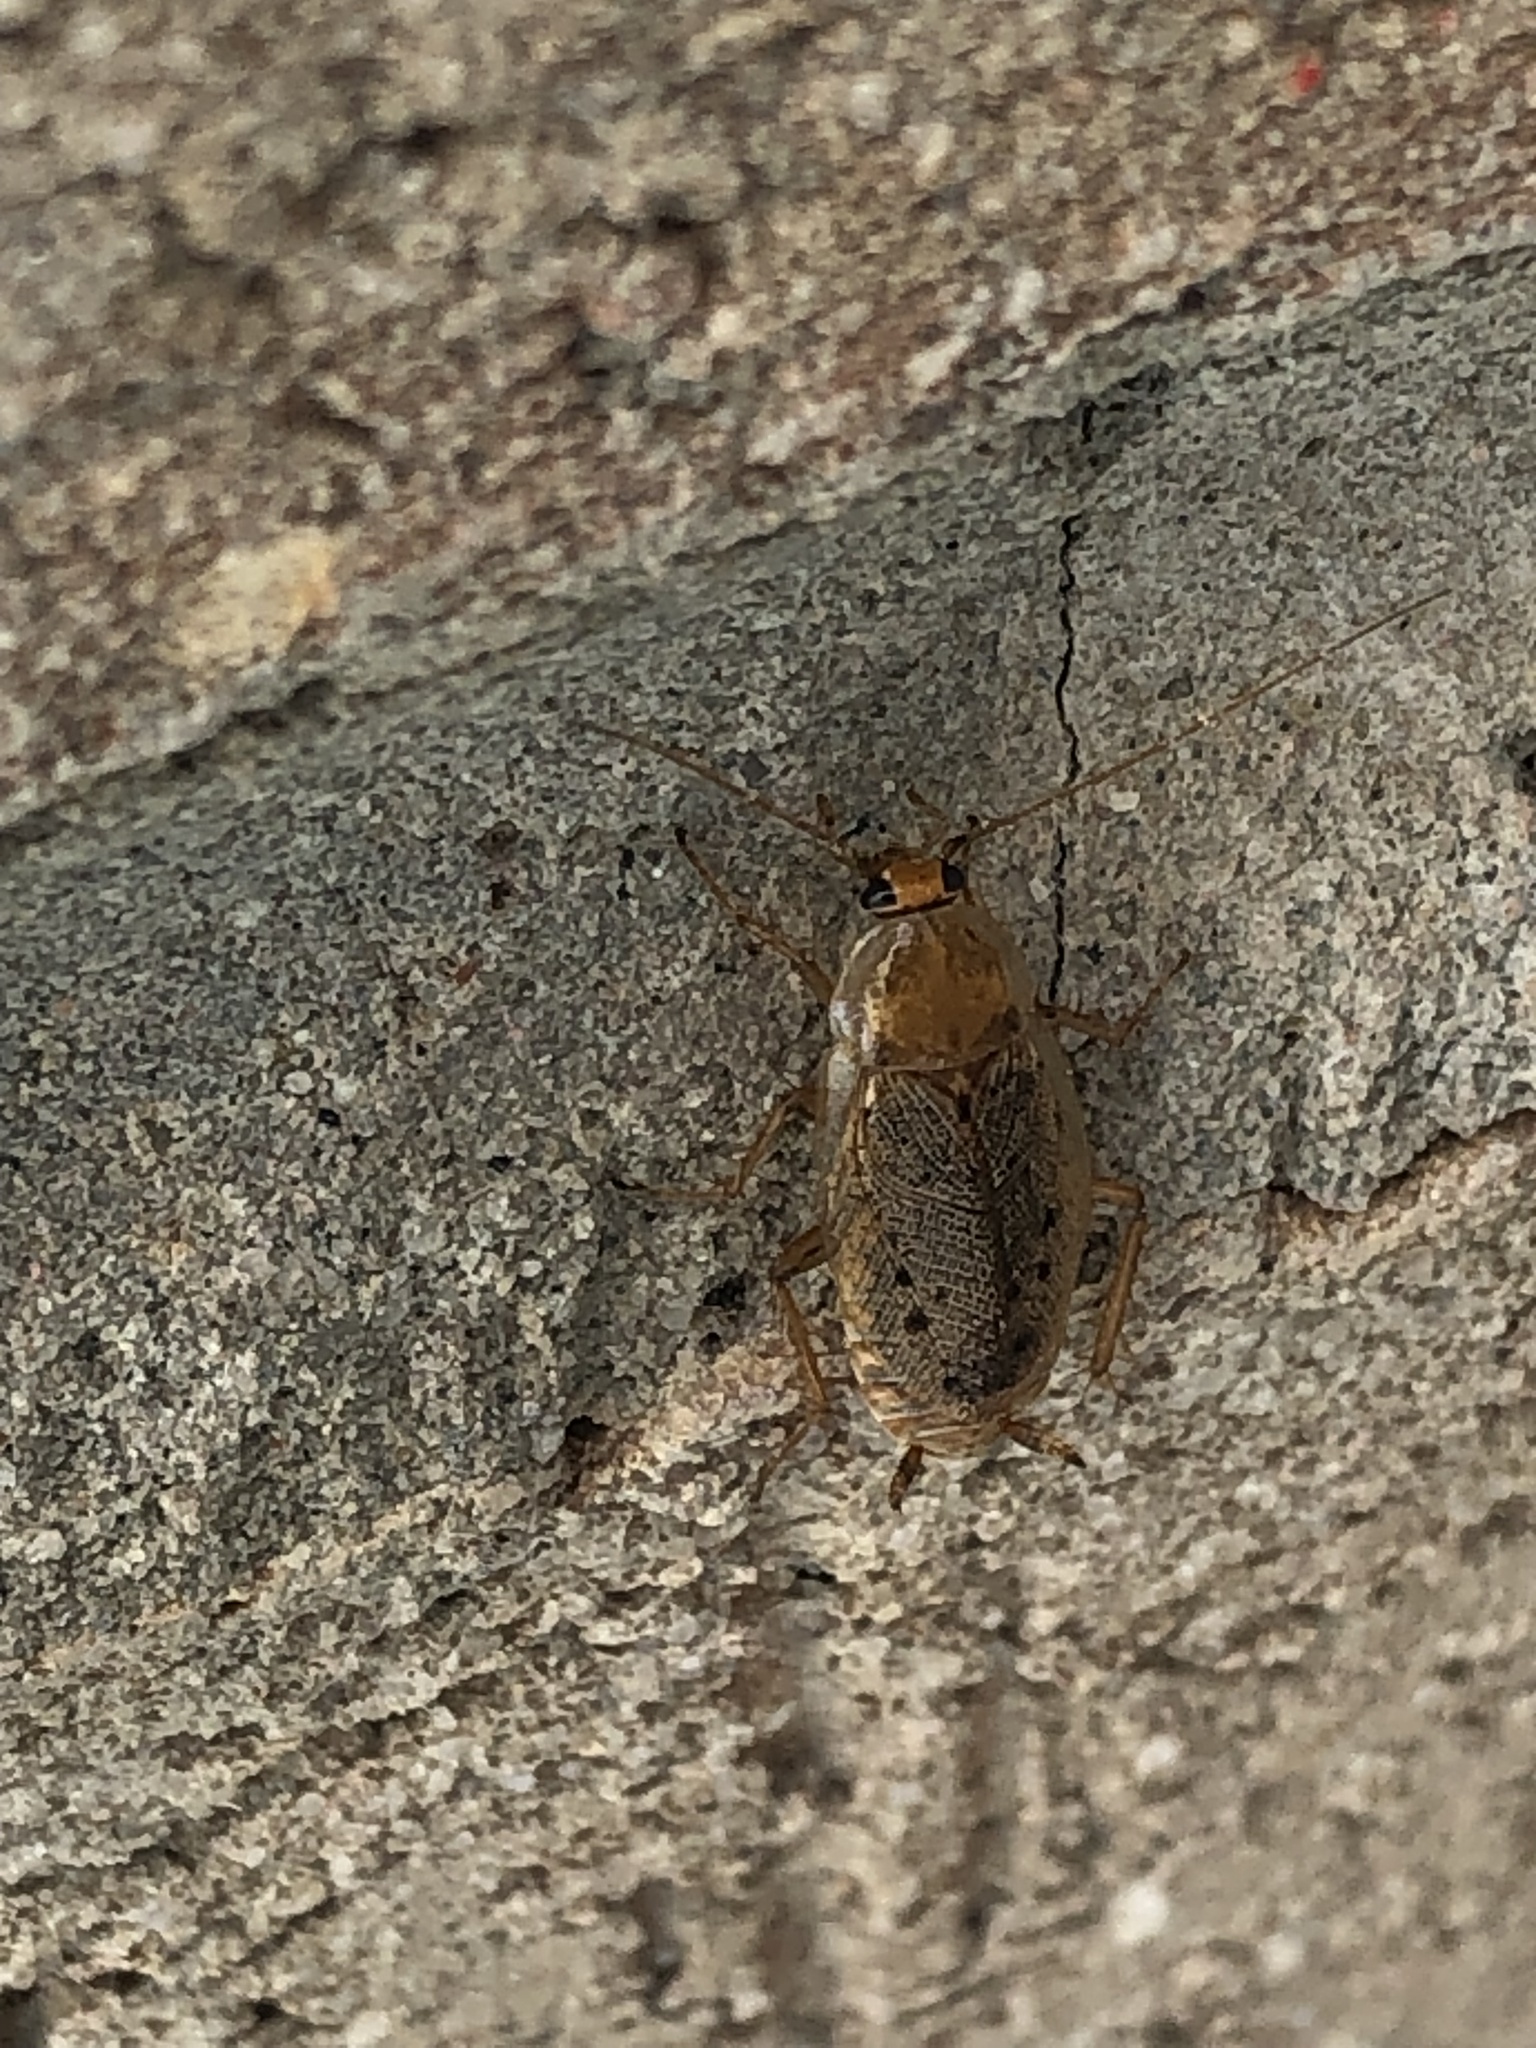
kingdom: Animalia
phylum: Arthropoda
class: Insecta
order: Blattodea
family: Ectobiidae
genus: Ectobius
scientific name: Ectobius lapponicus
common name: Dusky cockroach
